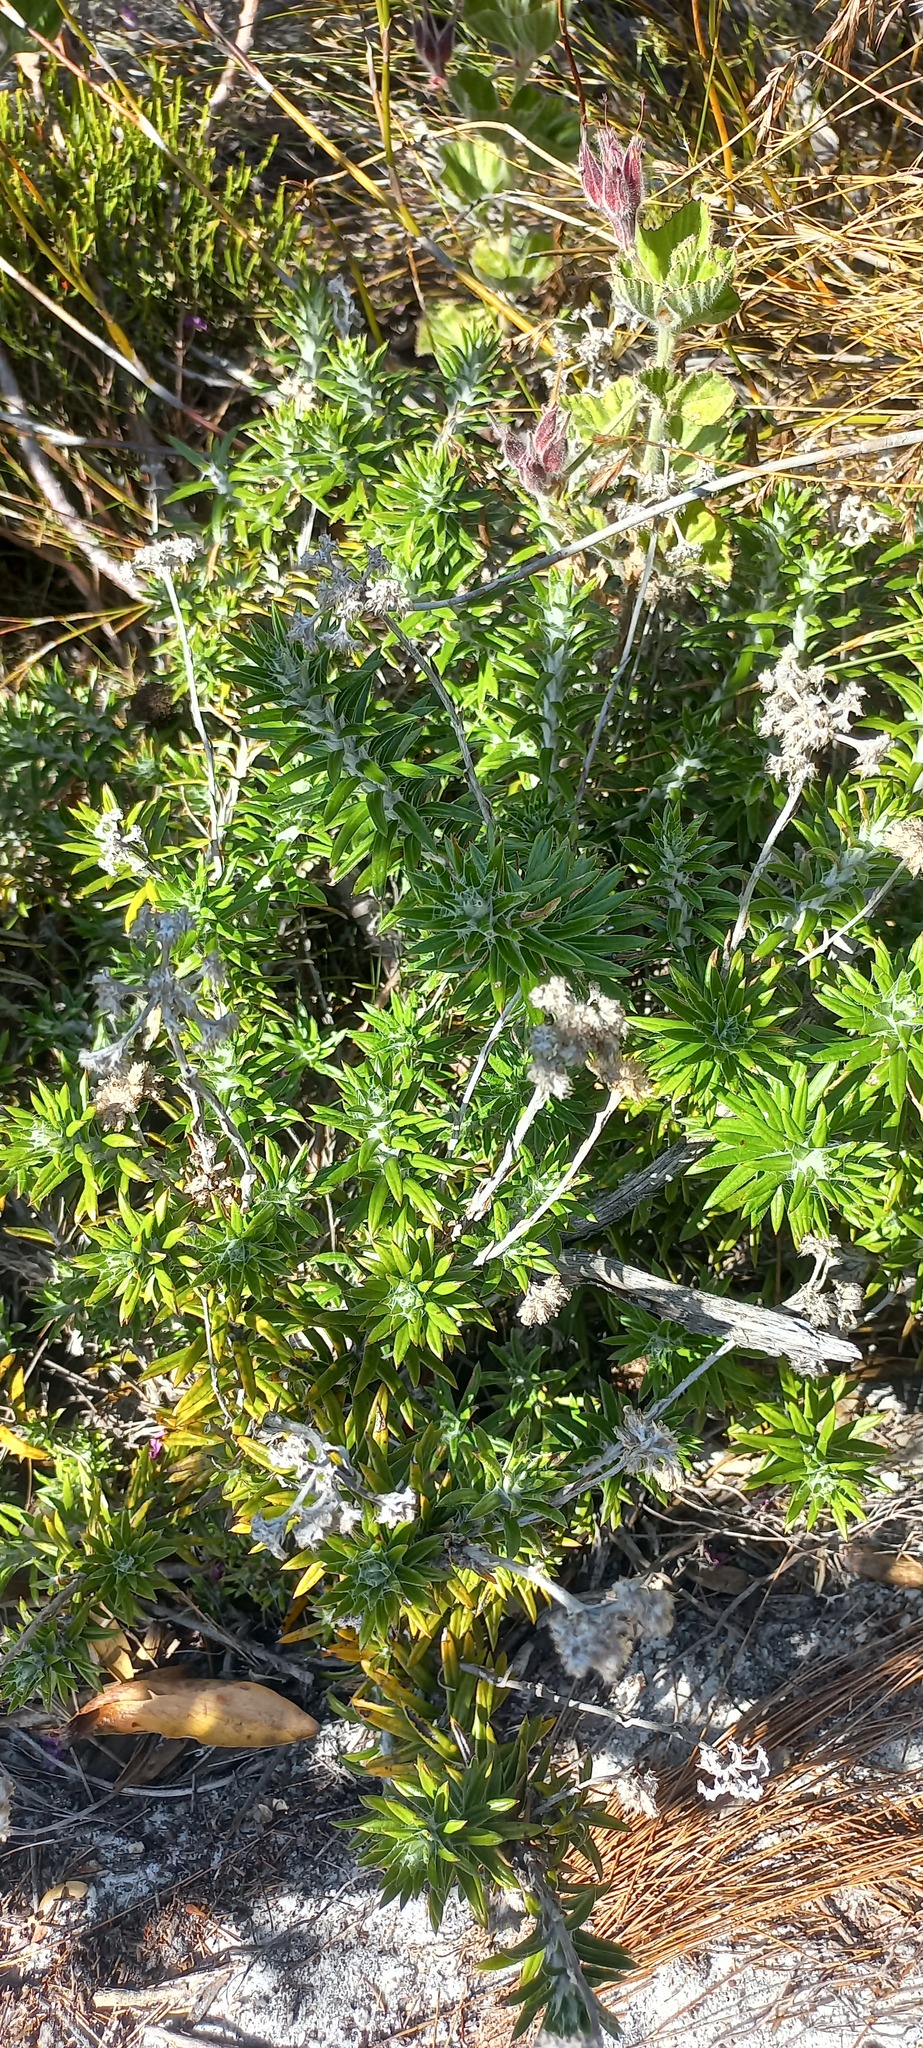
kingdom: Plantae
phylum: Tracheophyta
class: Magnoliopsida
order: Asterales
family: Asteraceae
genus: Anaxeton
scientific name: Anaxeton laeve
